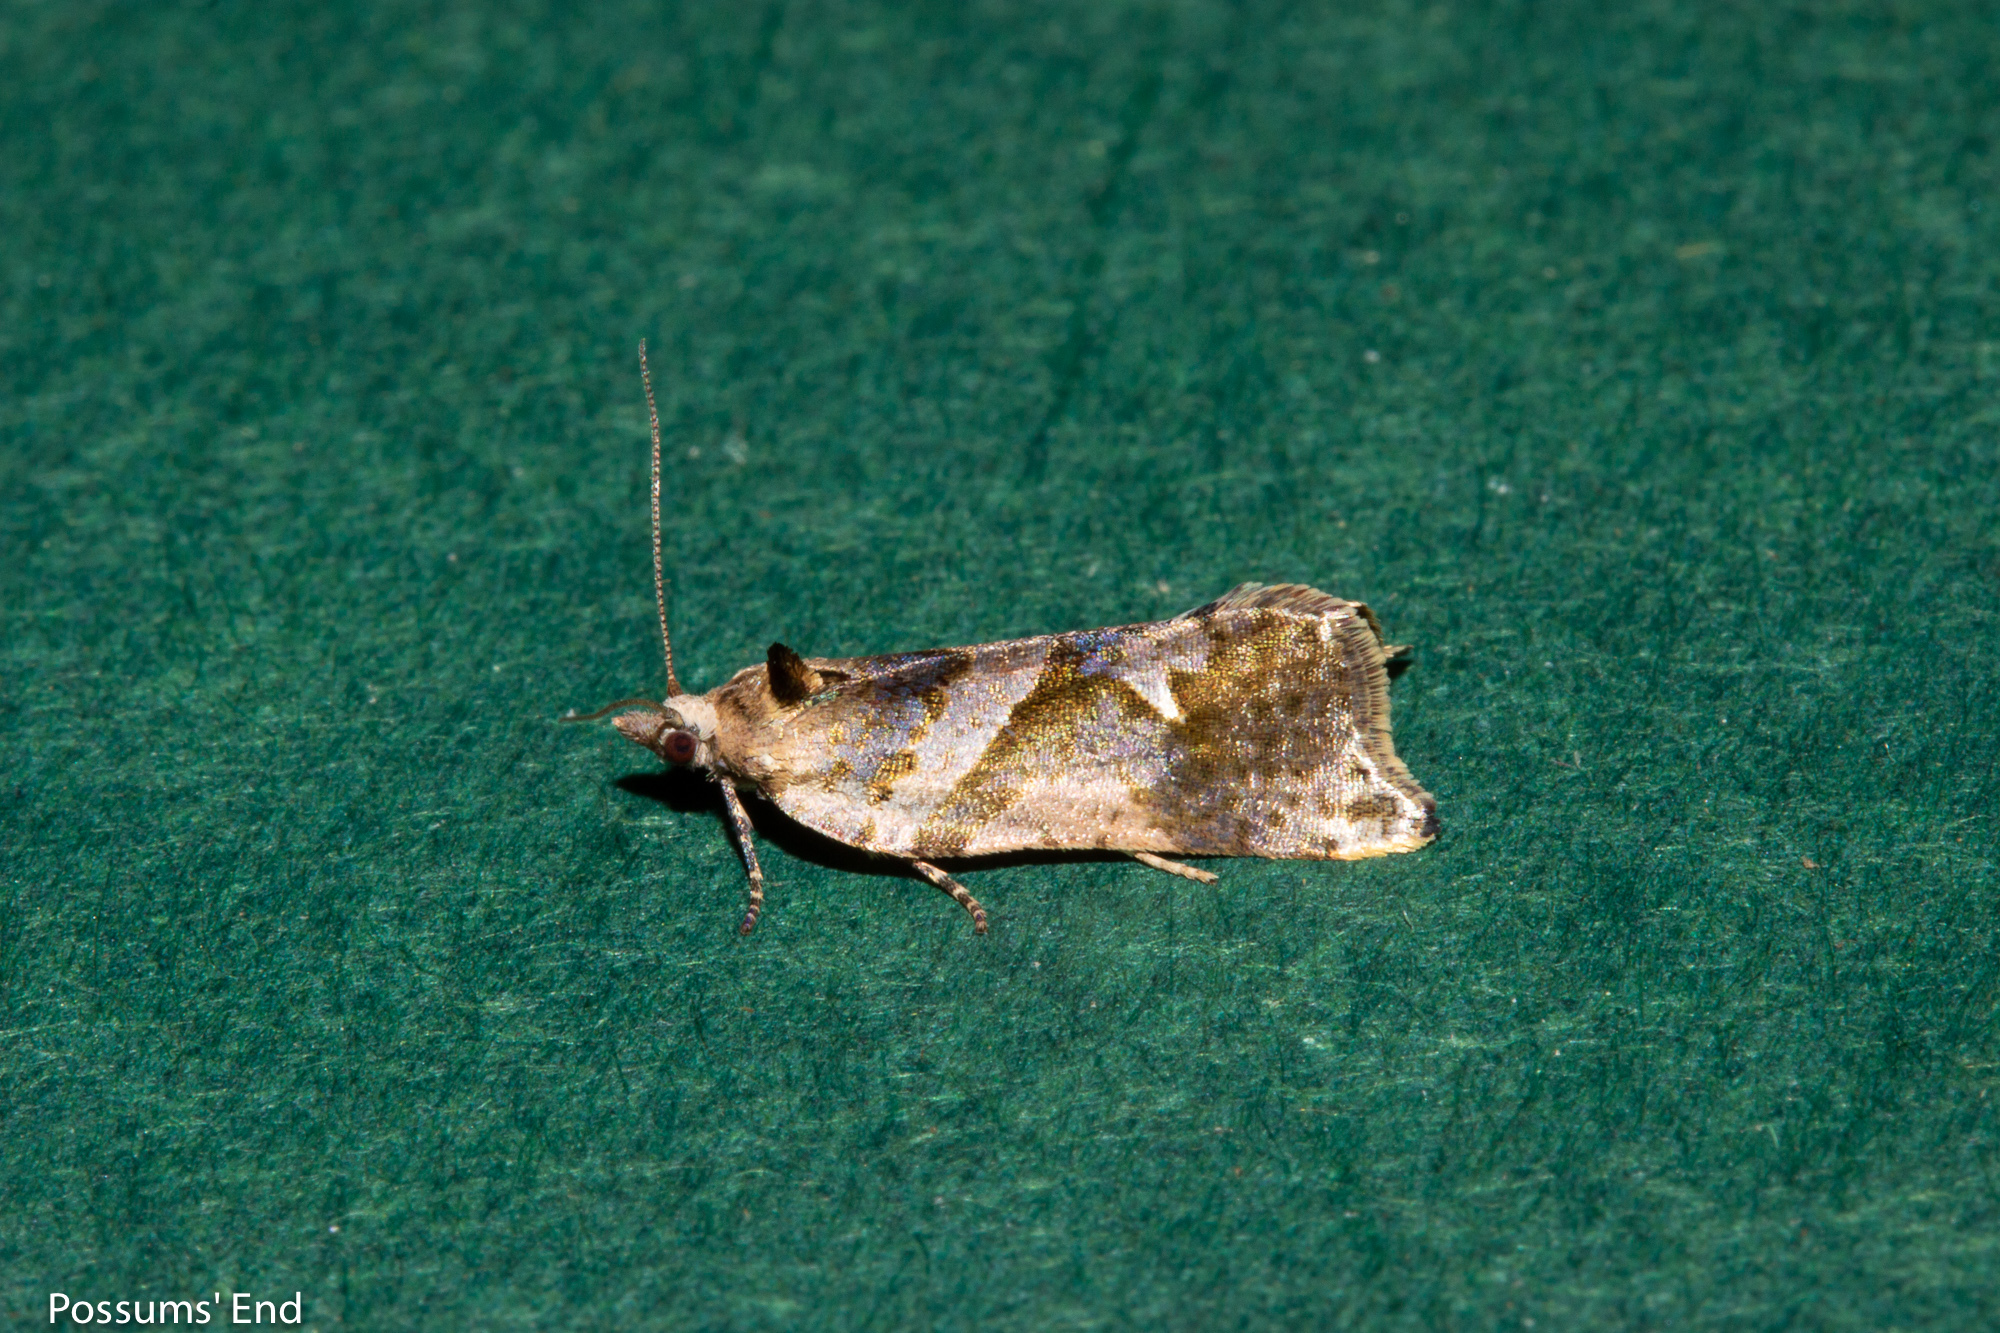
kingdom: Animalia
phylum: Arthropoda
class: Insecta
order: Lepidoptera
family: Tortricidae
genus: Pyrgotis
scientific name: Pyrgotis plagiatana
